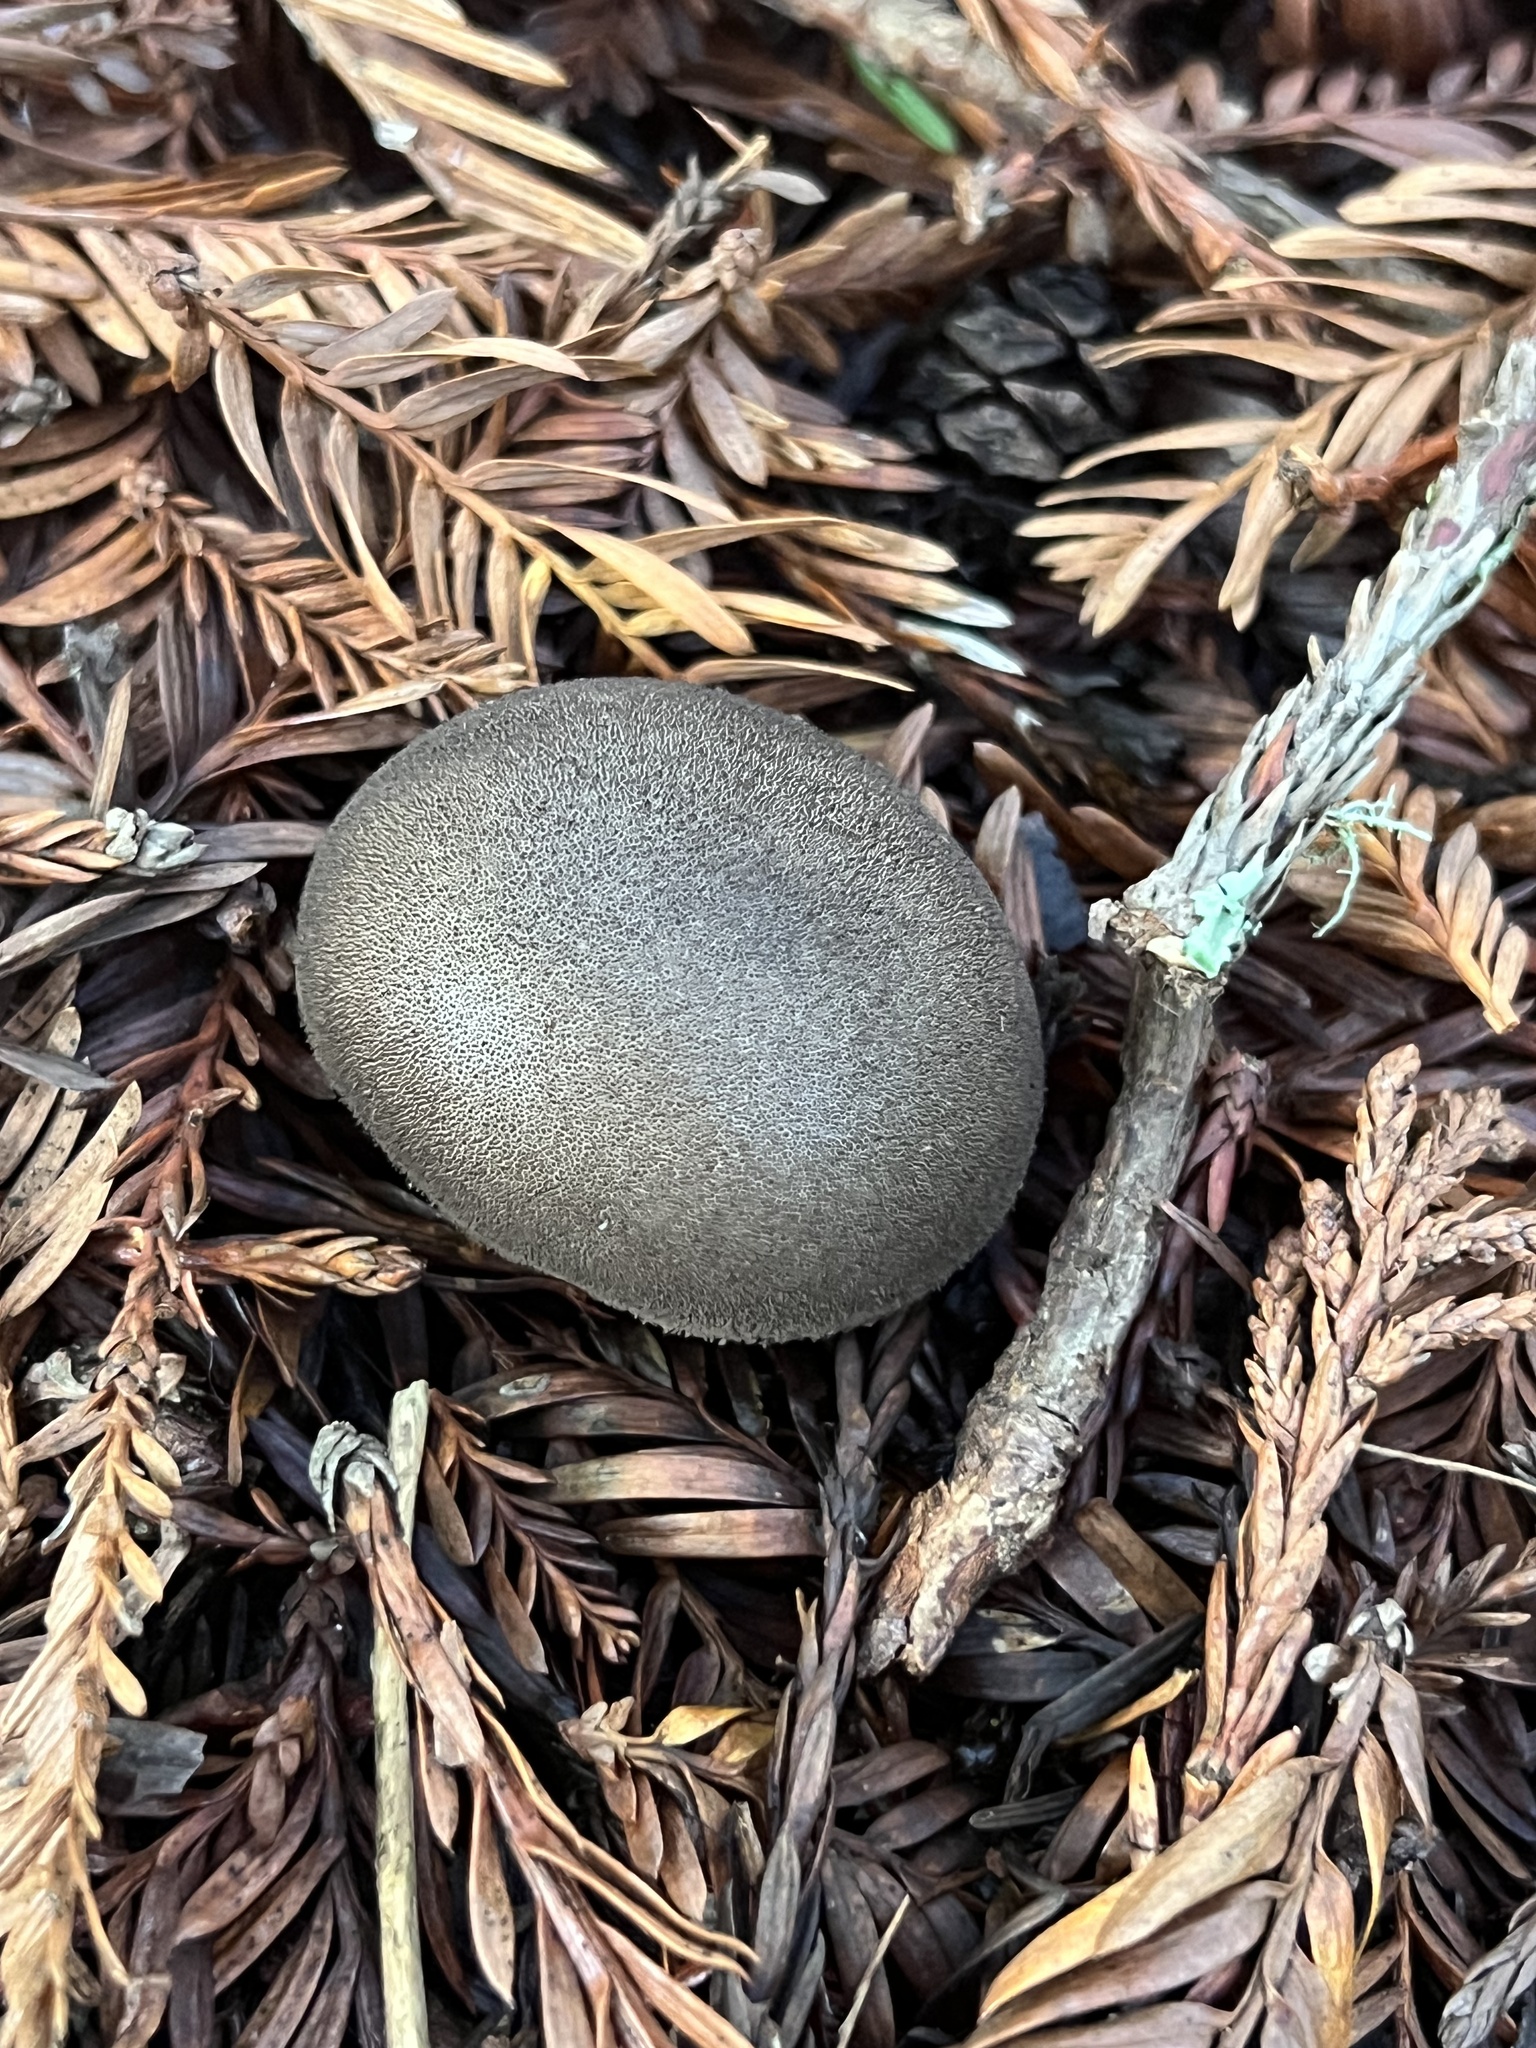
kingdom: Fungi
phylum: Basidiomycota
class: Agaricomycetes
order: Agaricales
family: Lycoperdaceae
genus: Lycoperdon
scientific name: Lycoperdon umbrinum
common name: Umber-brown puffball
